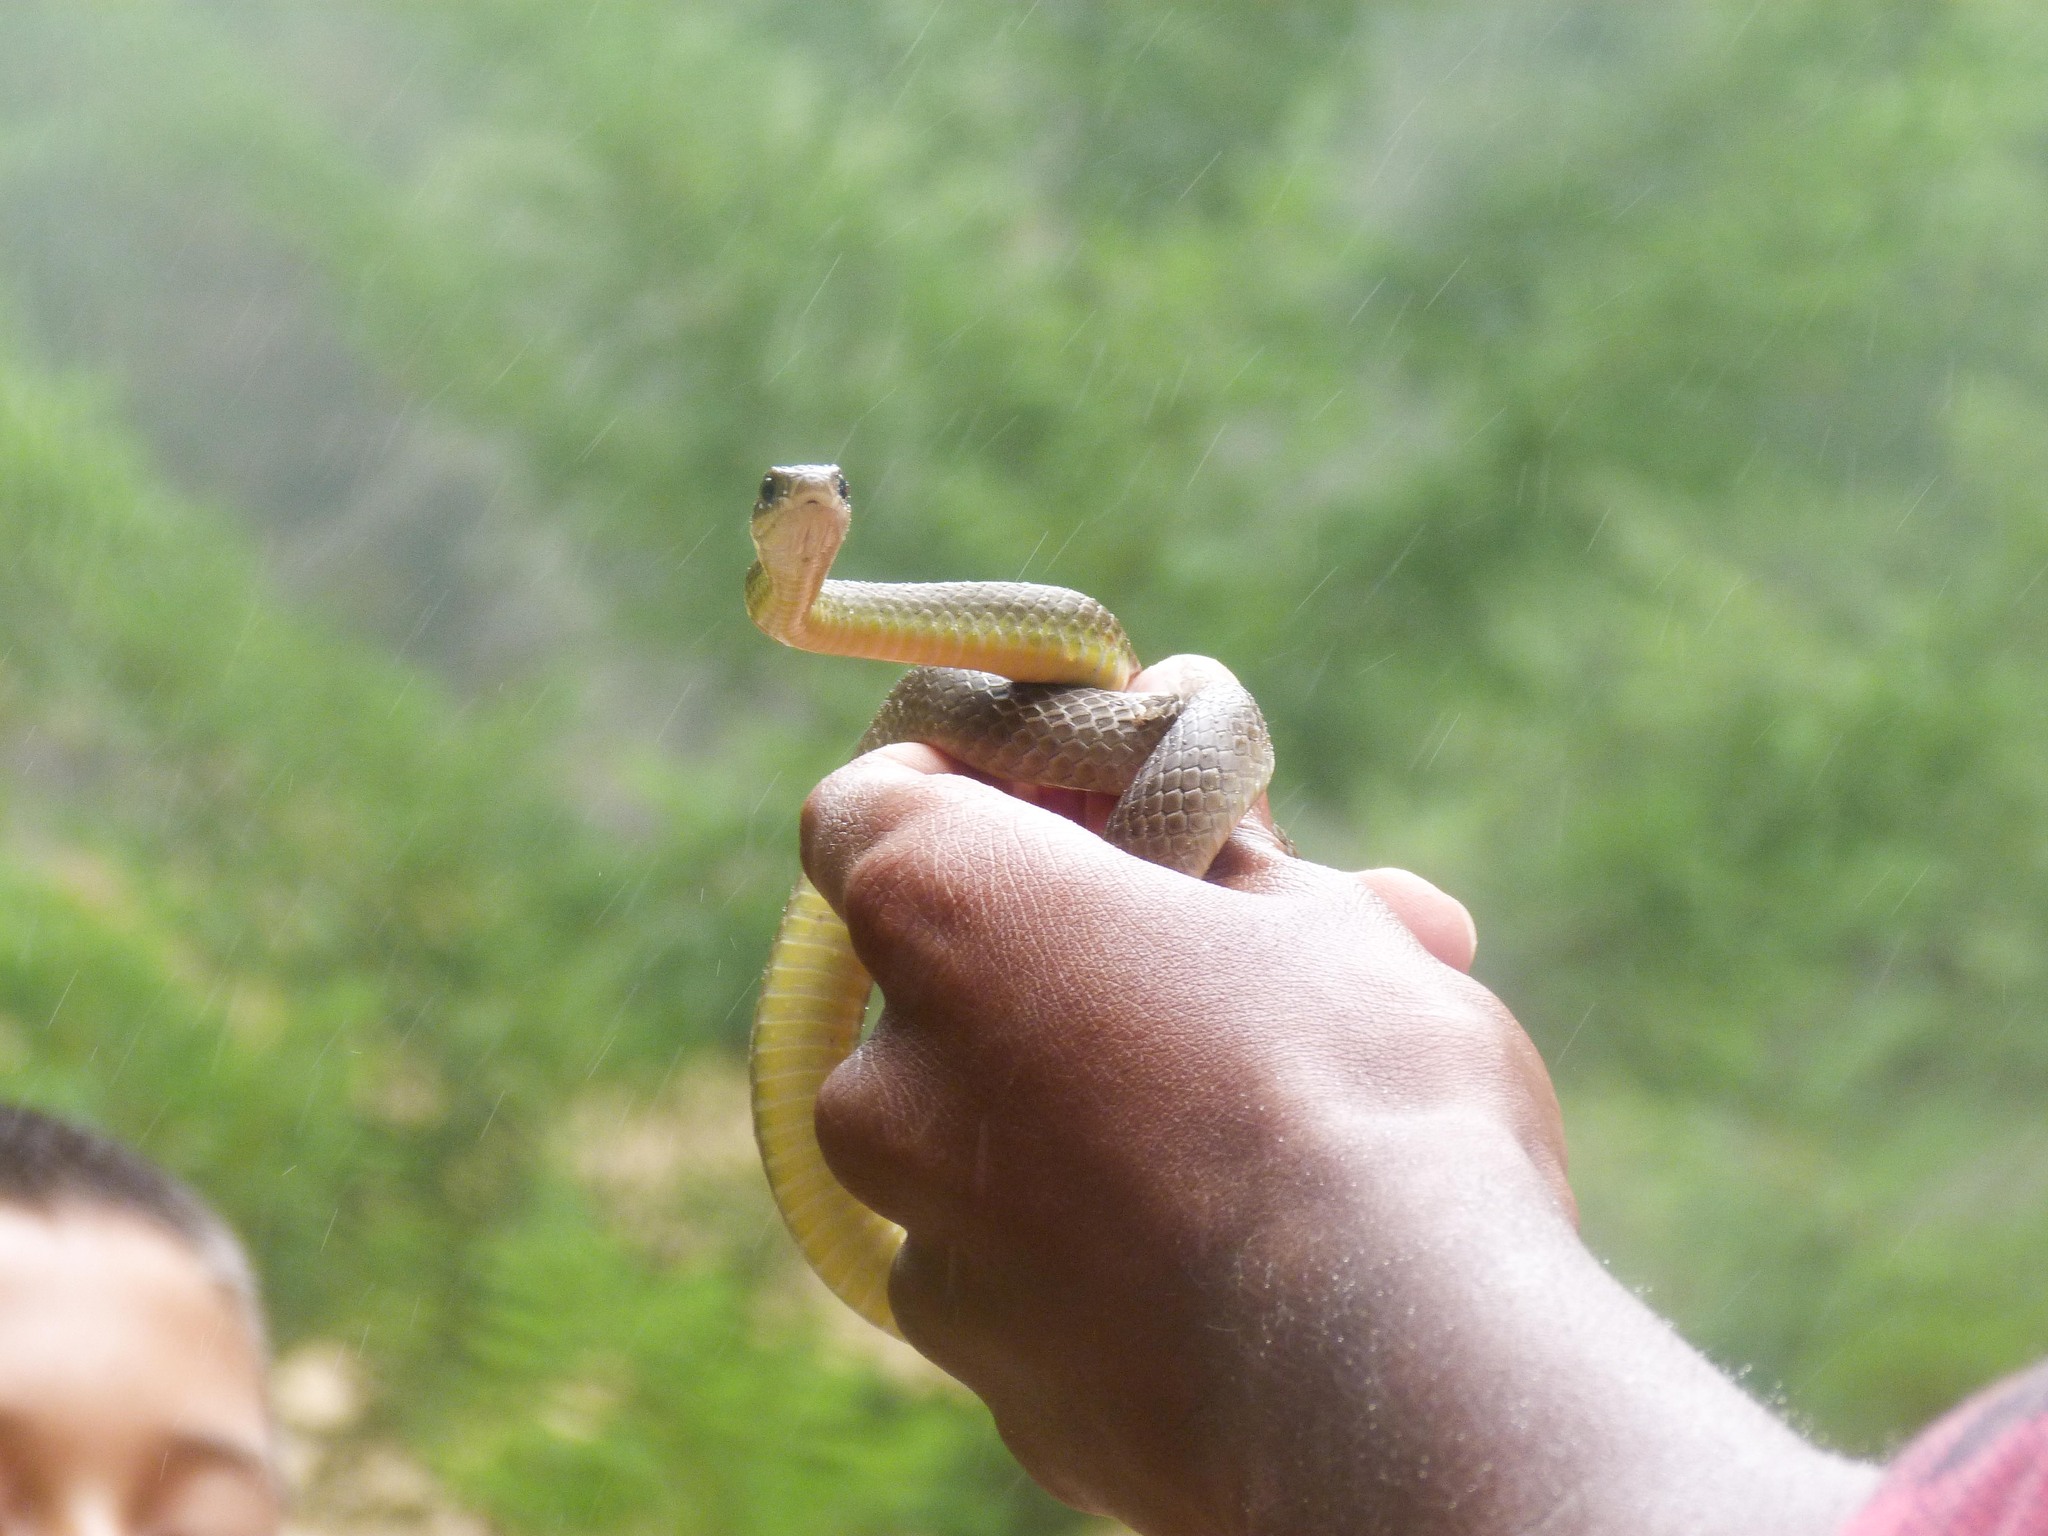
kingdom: Animalia
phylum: Chordata
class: Squamata
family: Colubridae
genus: Coluber
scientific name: Coluber constrictor
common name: Eastern racer
